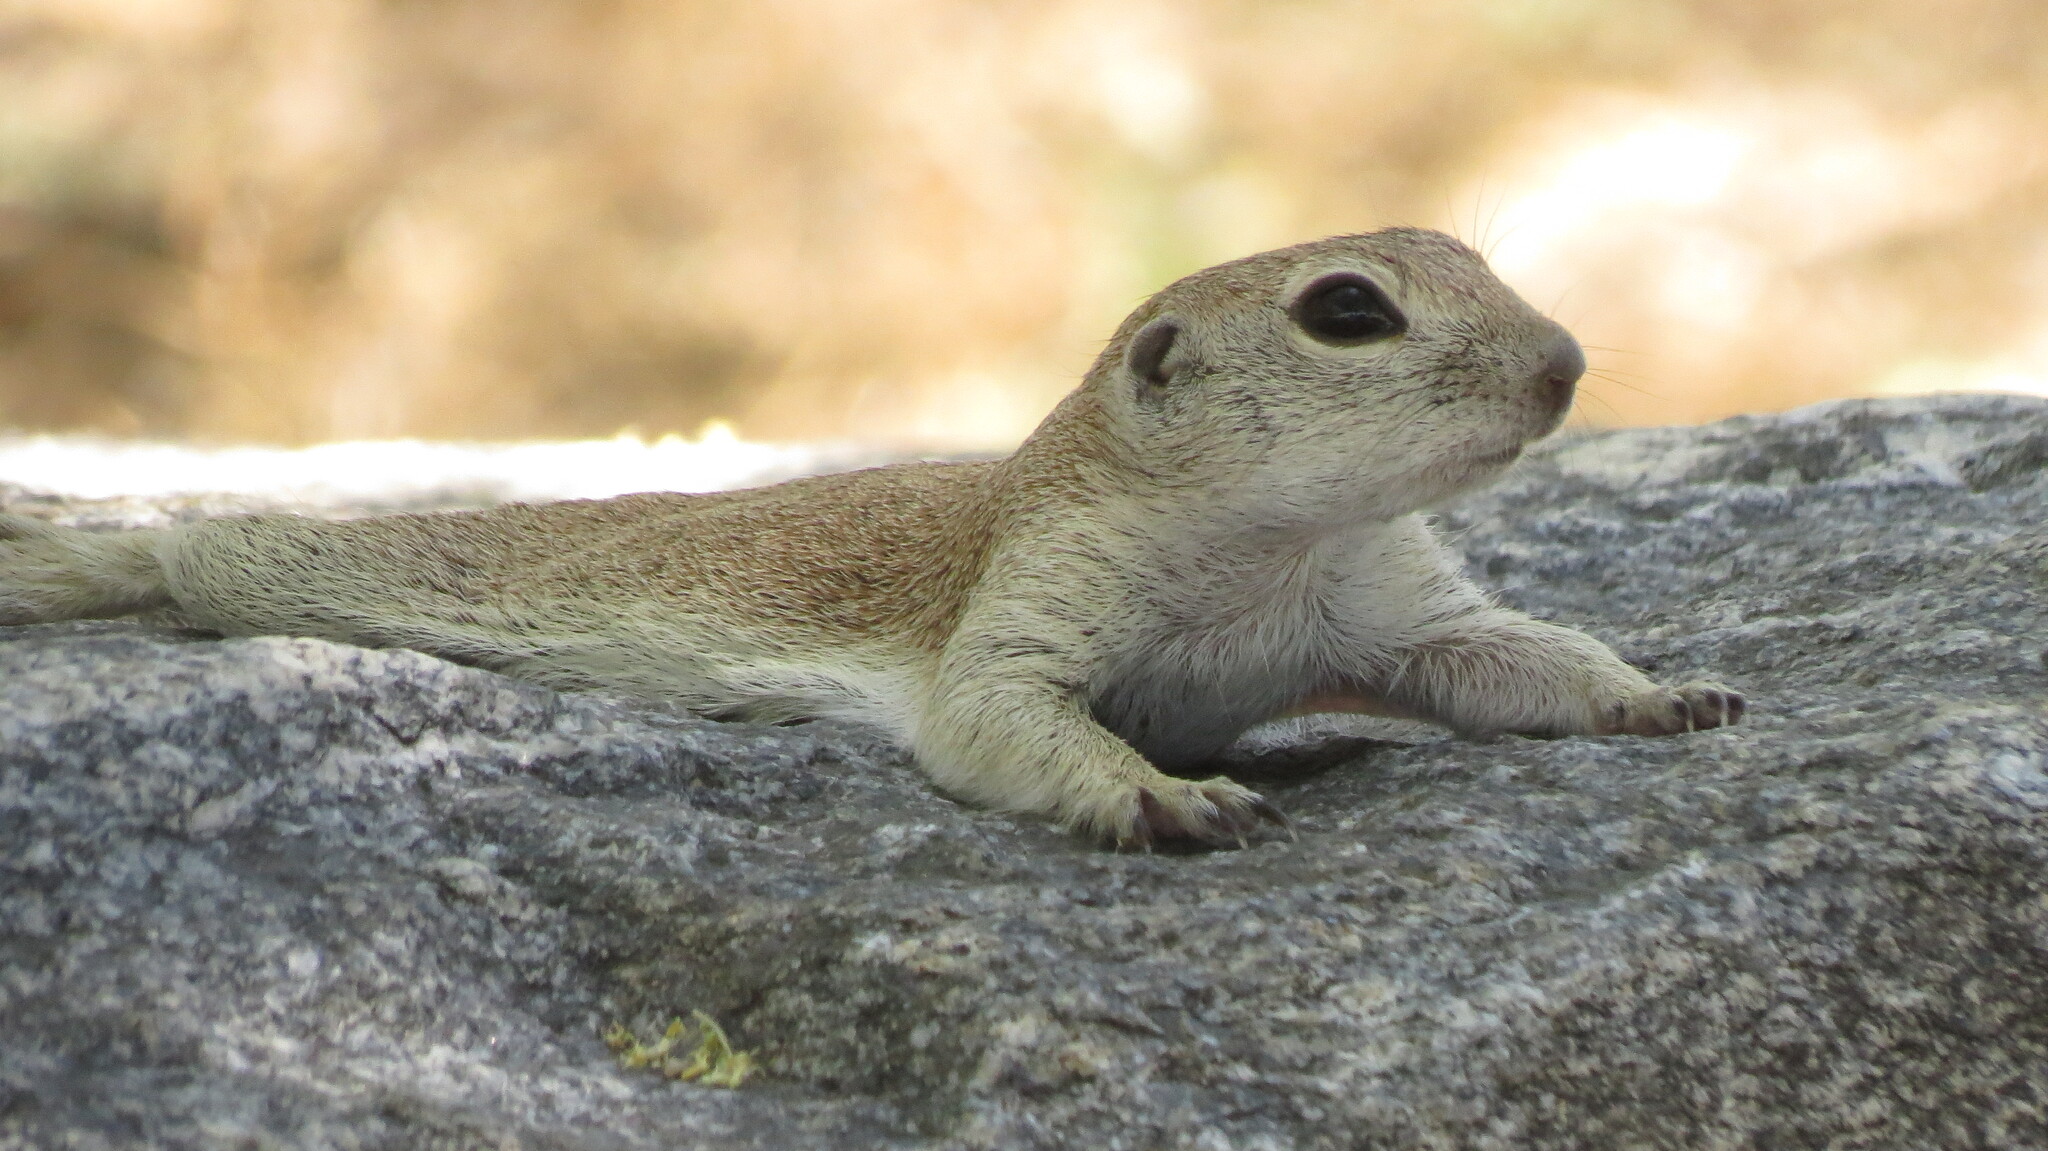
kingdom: Animalia
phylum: Chordata
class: Mammalia
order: Rodentia
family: Sciuridae
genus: Xerospermophilus
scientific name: Xerospermophilus tereticaudus
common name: Round-tailed ground squirrel
